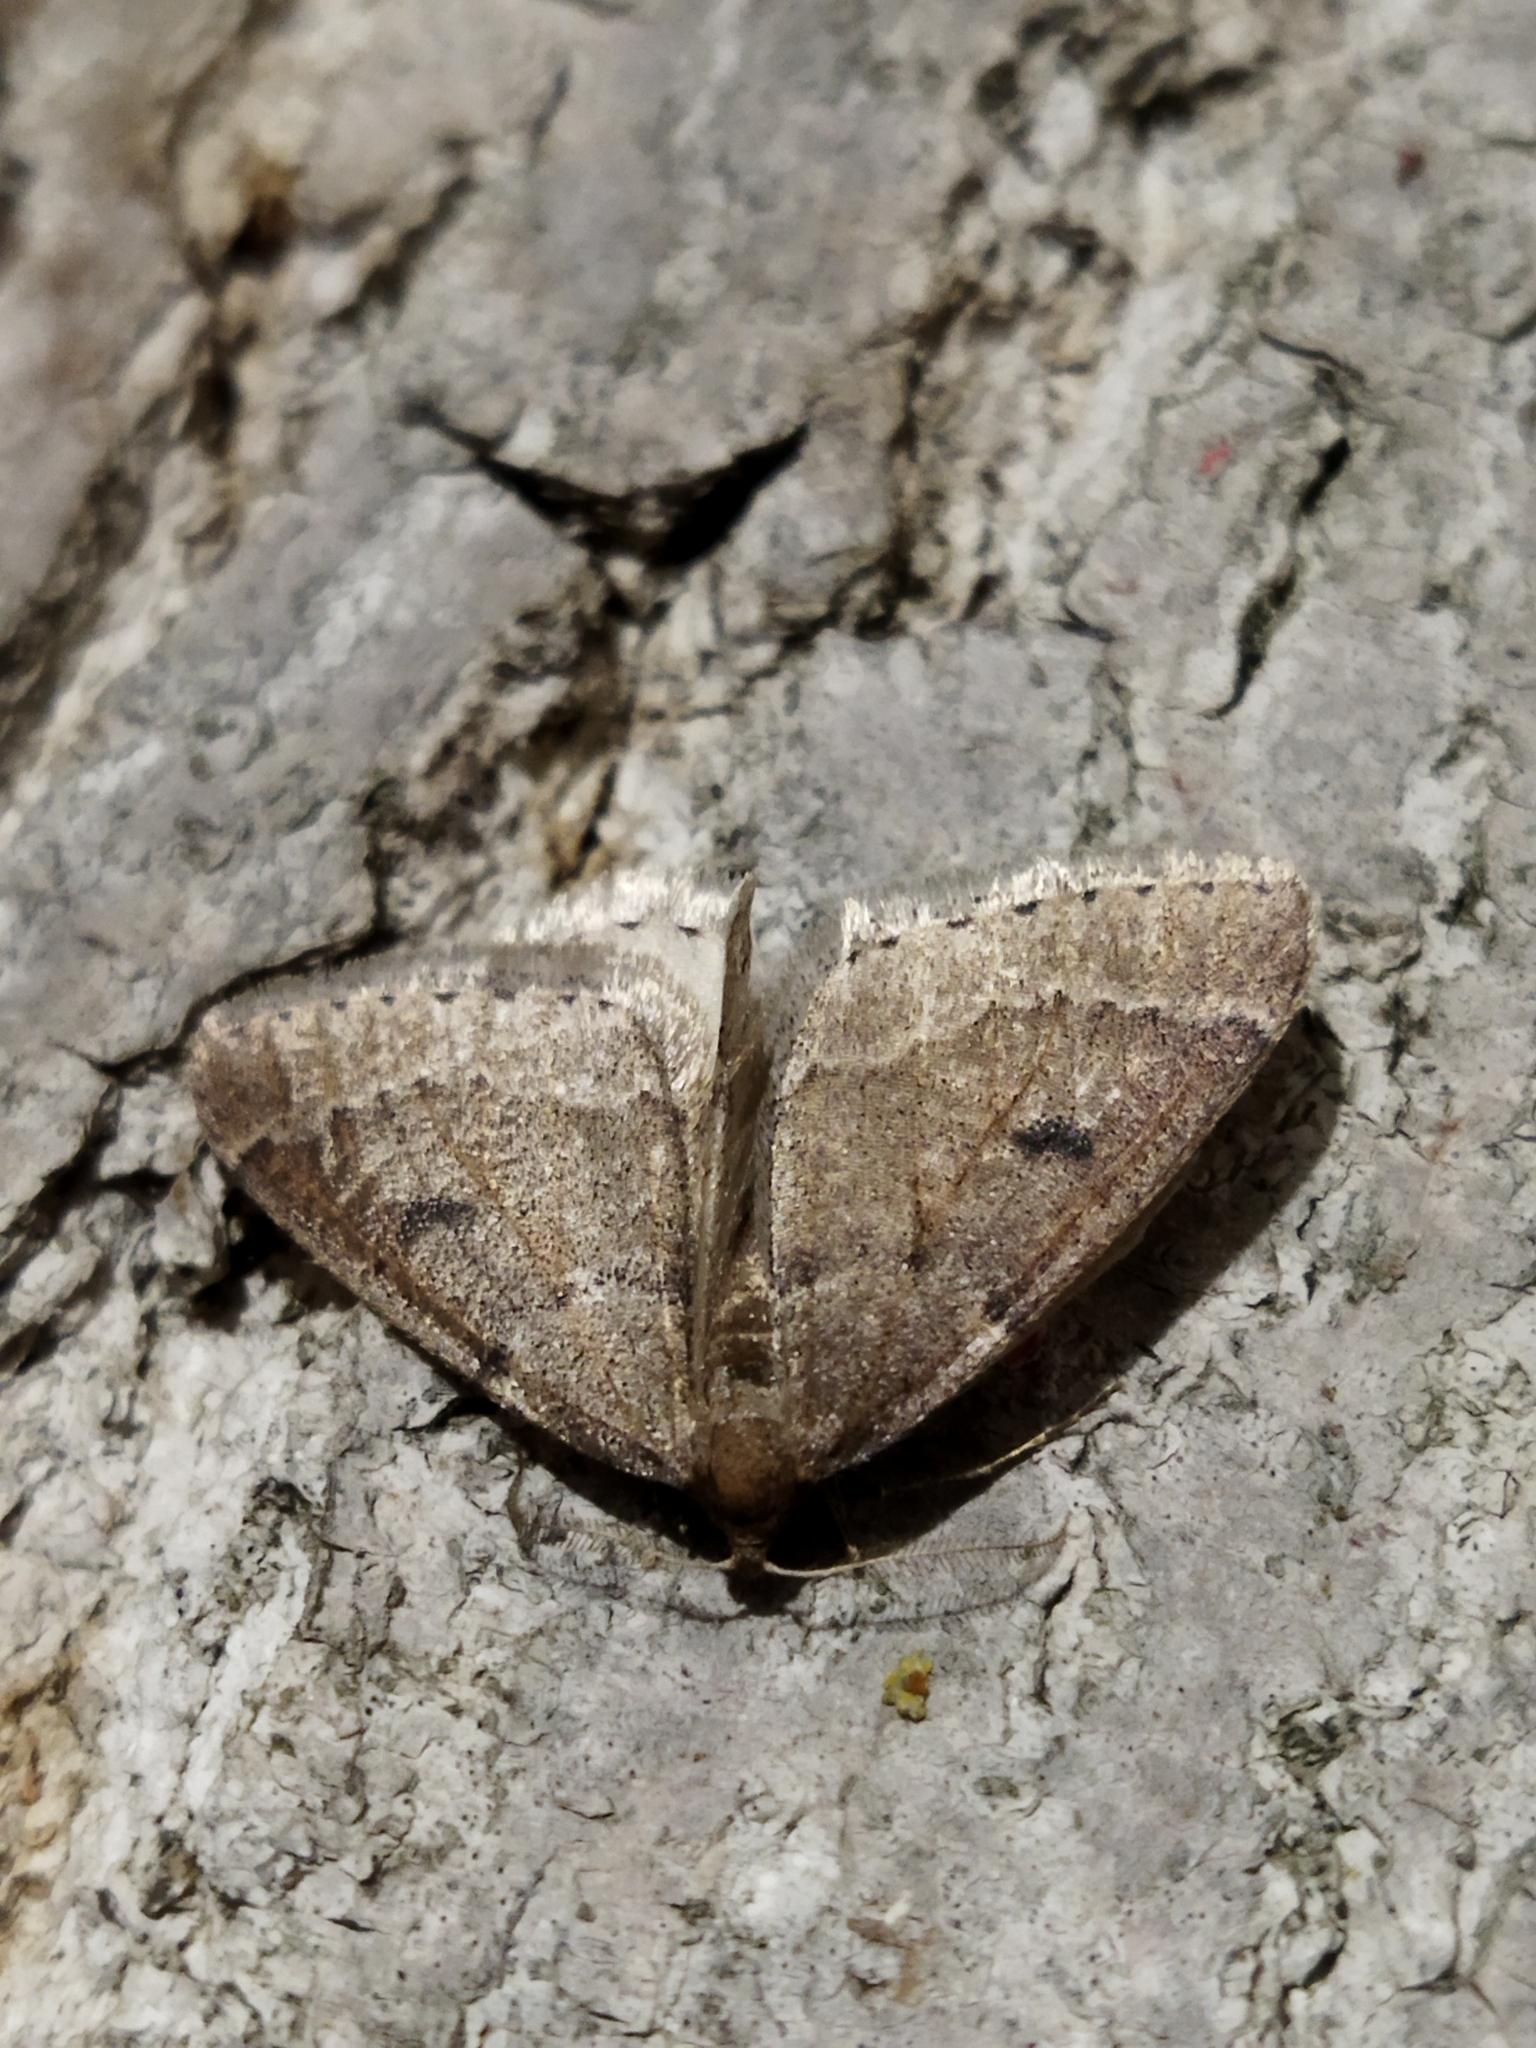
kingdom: Animalia
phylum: Arthropoda
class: Insecta
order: Lepidoptera
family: Geometridae
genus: Theria
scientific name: Theria rupicapraria
